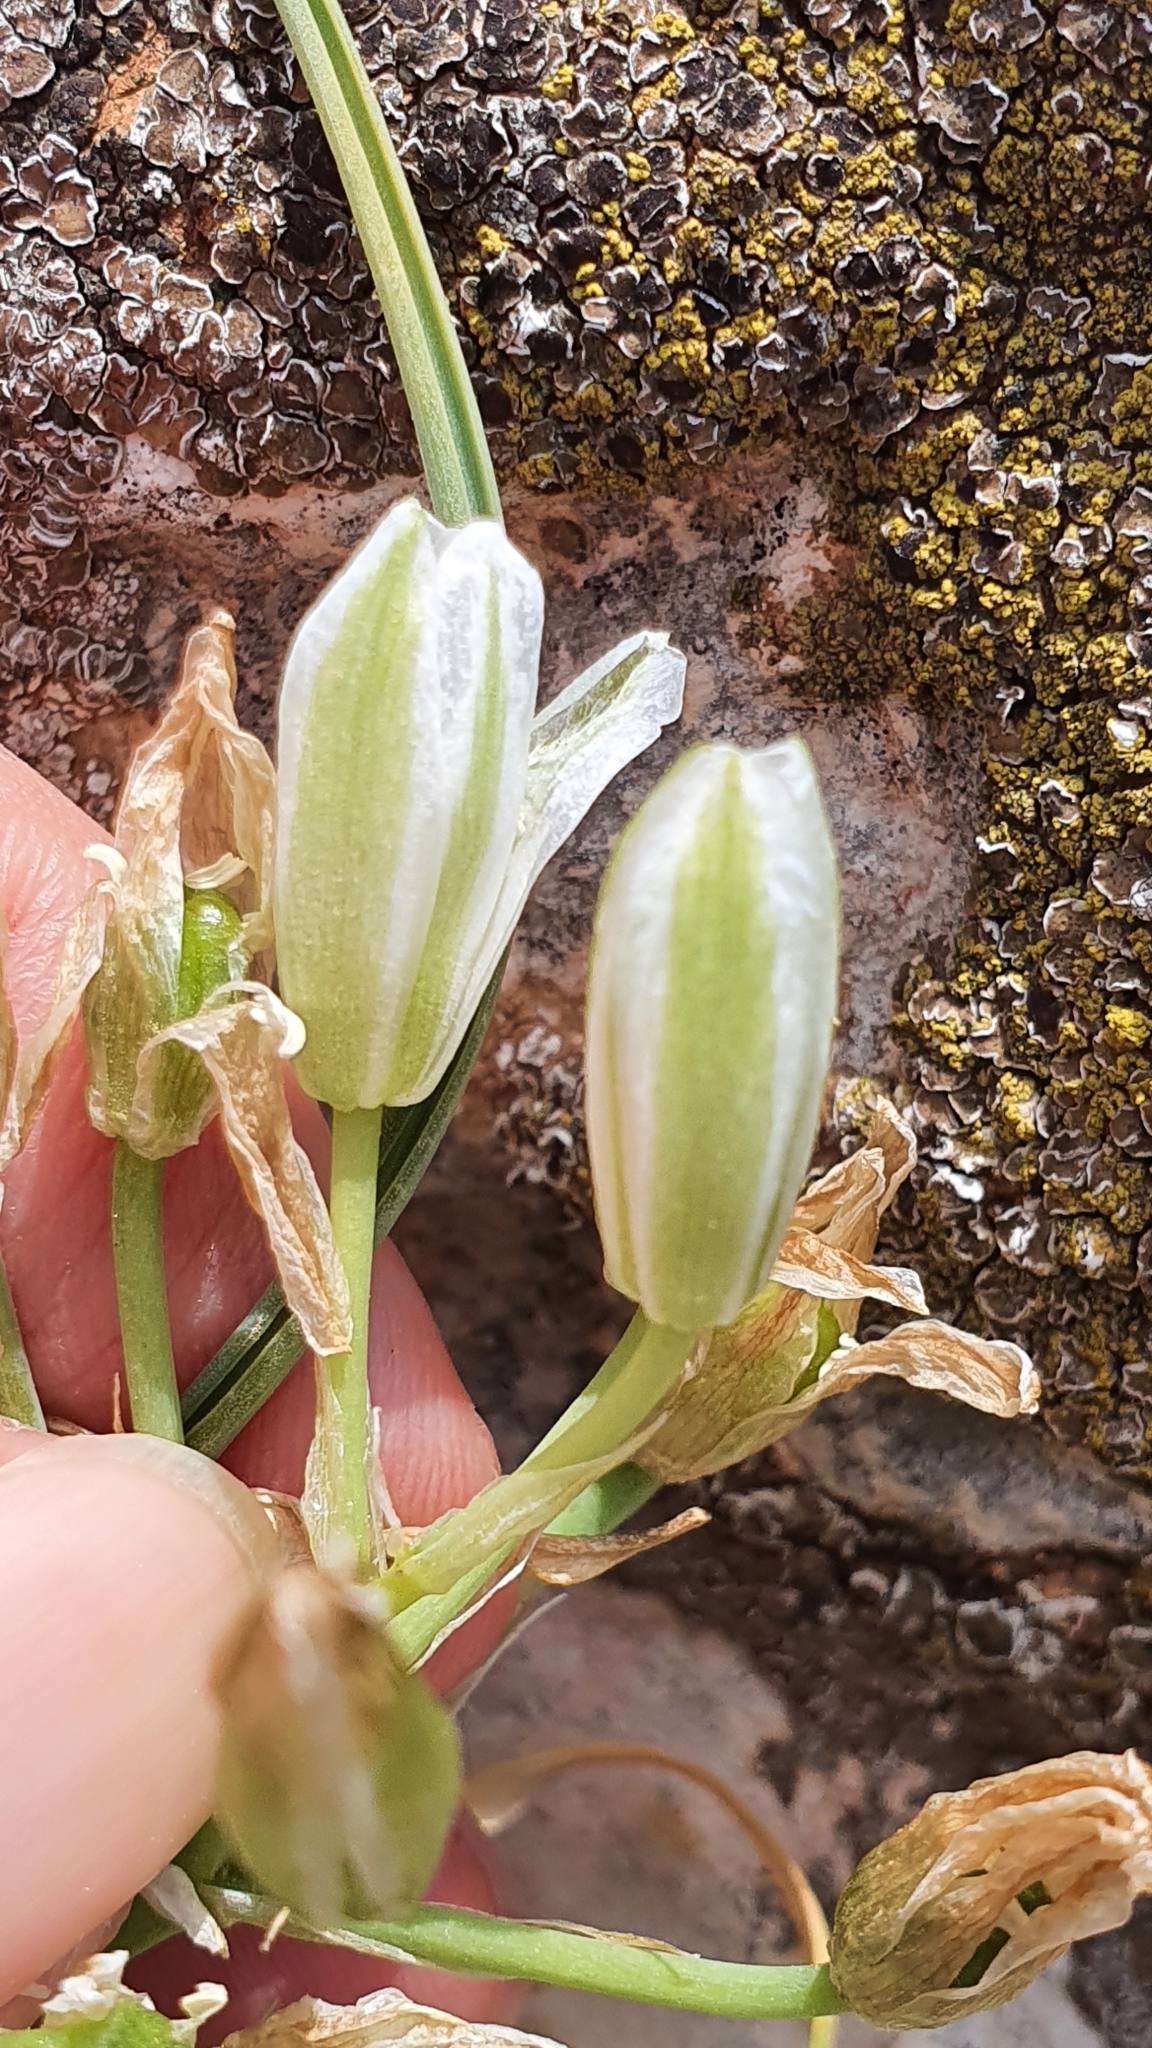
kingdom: Plantae
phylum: Tracheophyta
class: Liliopsida
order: Asparagales
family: Asparagaceae
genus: Ornithogalum
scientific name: Ornithogalum baeticum
